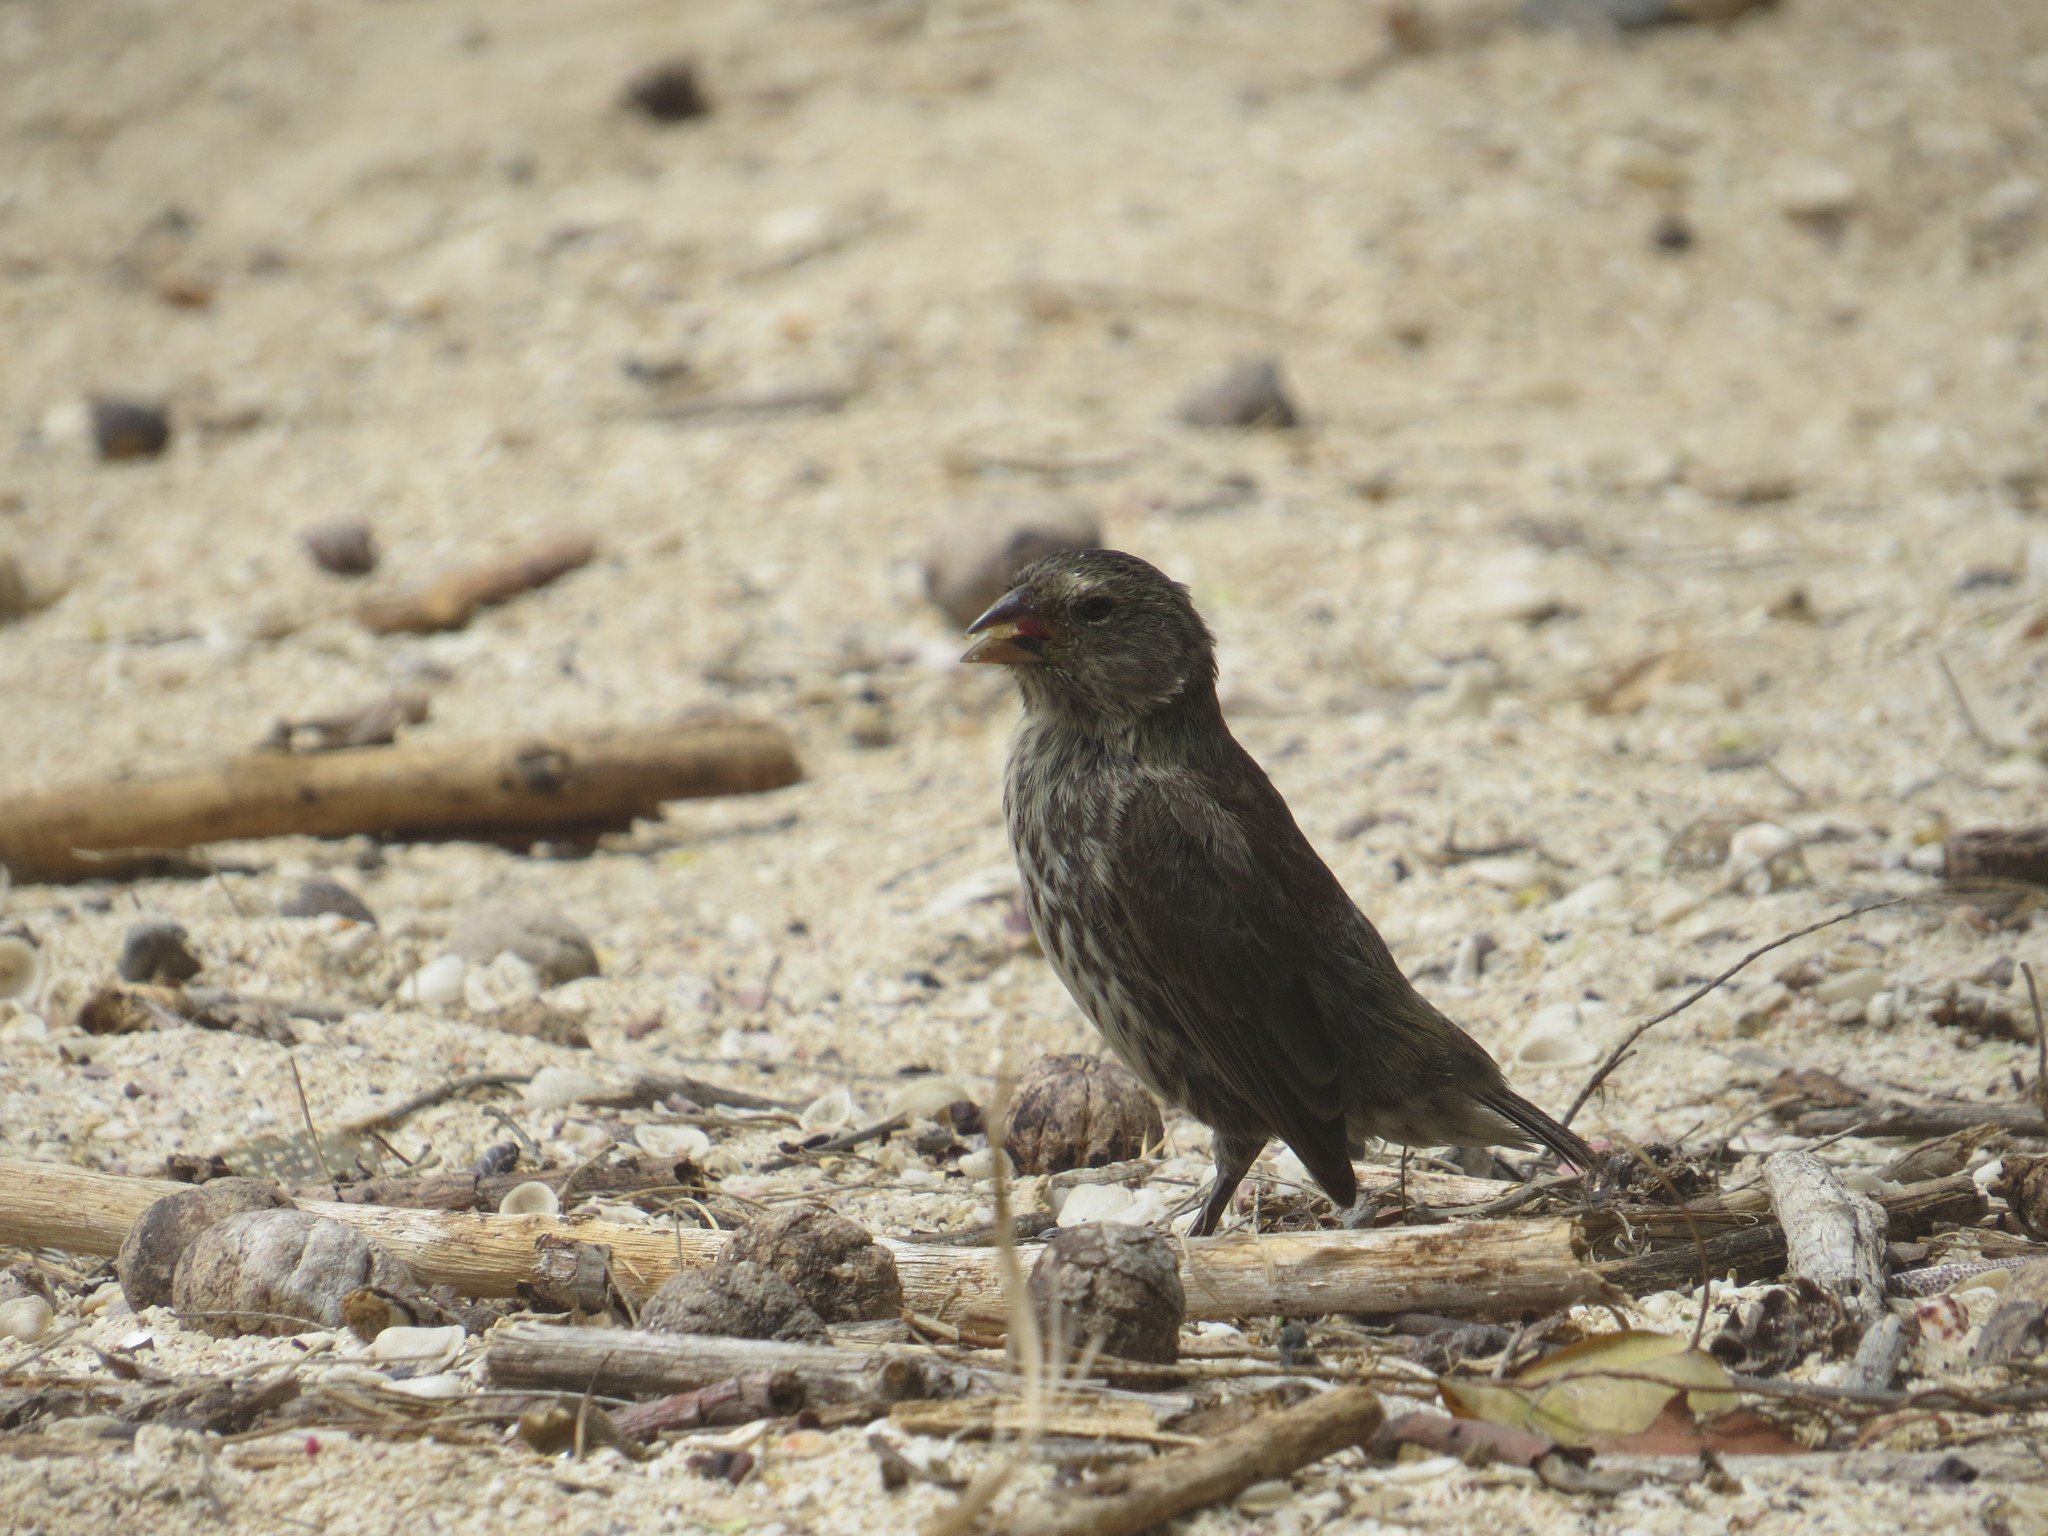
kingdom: Animalia
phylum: Chordata
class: Aves
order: Passeriformes
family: Thraupidae
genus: Geospiza
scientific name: Geospiza fuliginosa
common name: Small ground finch
